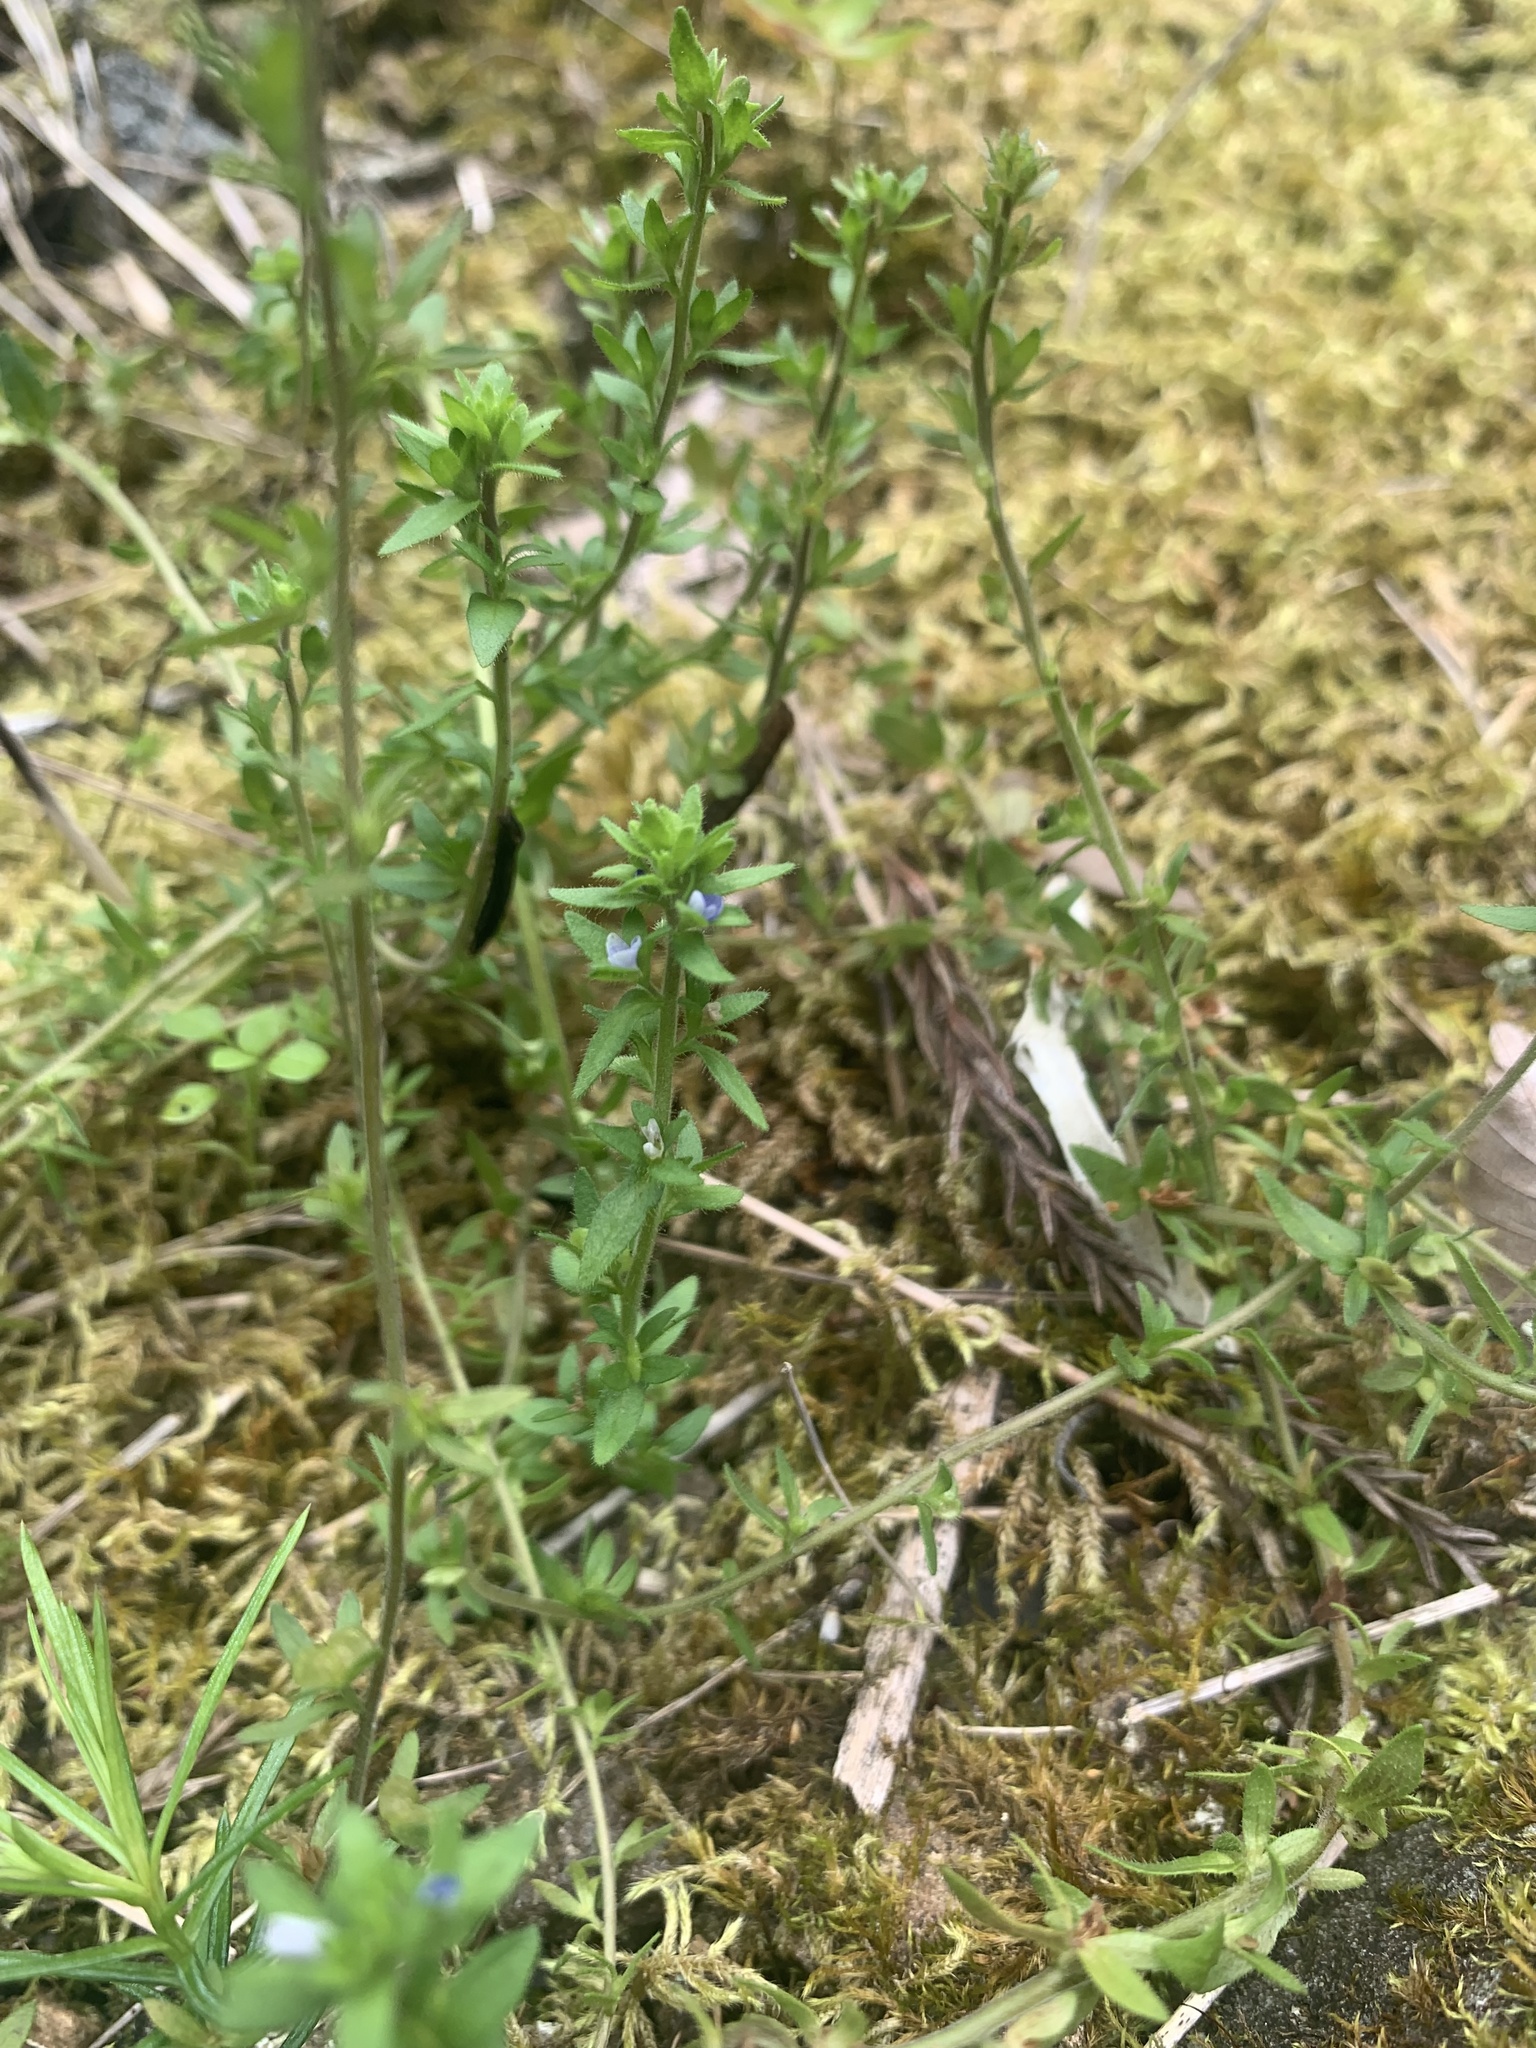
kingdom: Plantae
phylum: Tracheophyta
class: Magnoliopsida
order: Lamiales
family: Plantaginaceae
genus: Veronica
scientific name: Veronica arvensis
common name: Corn speedwell
